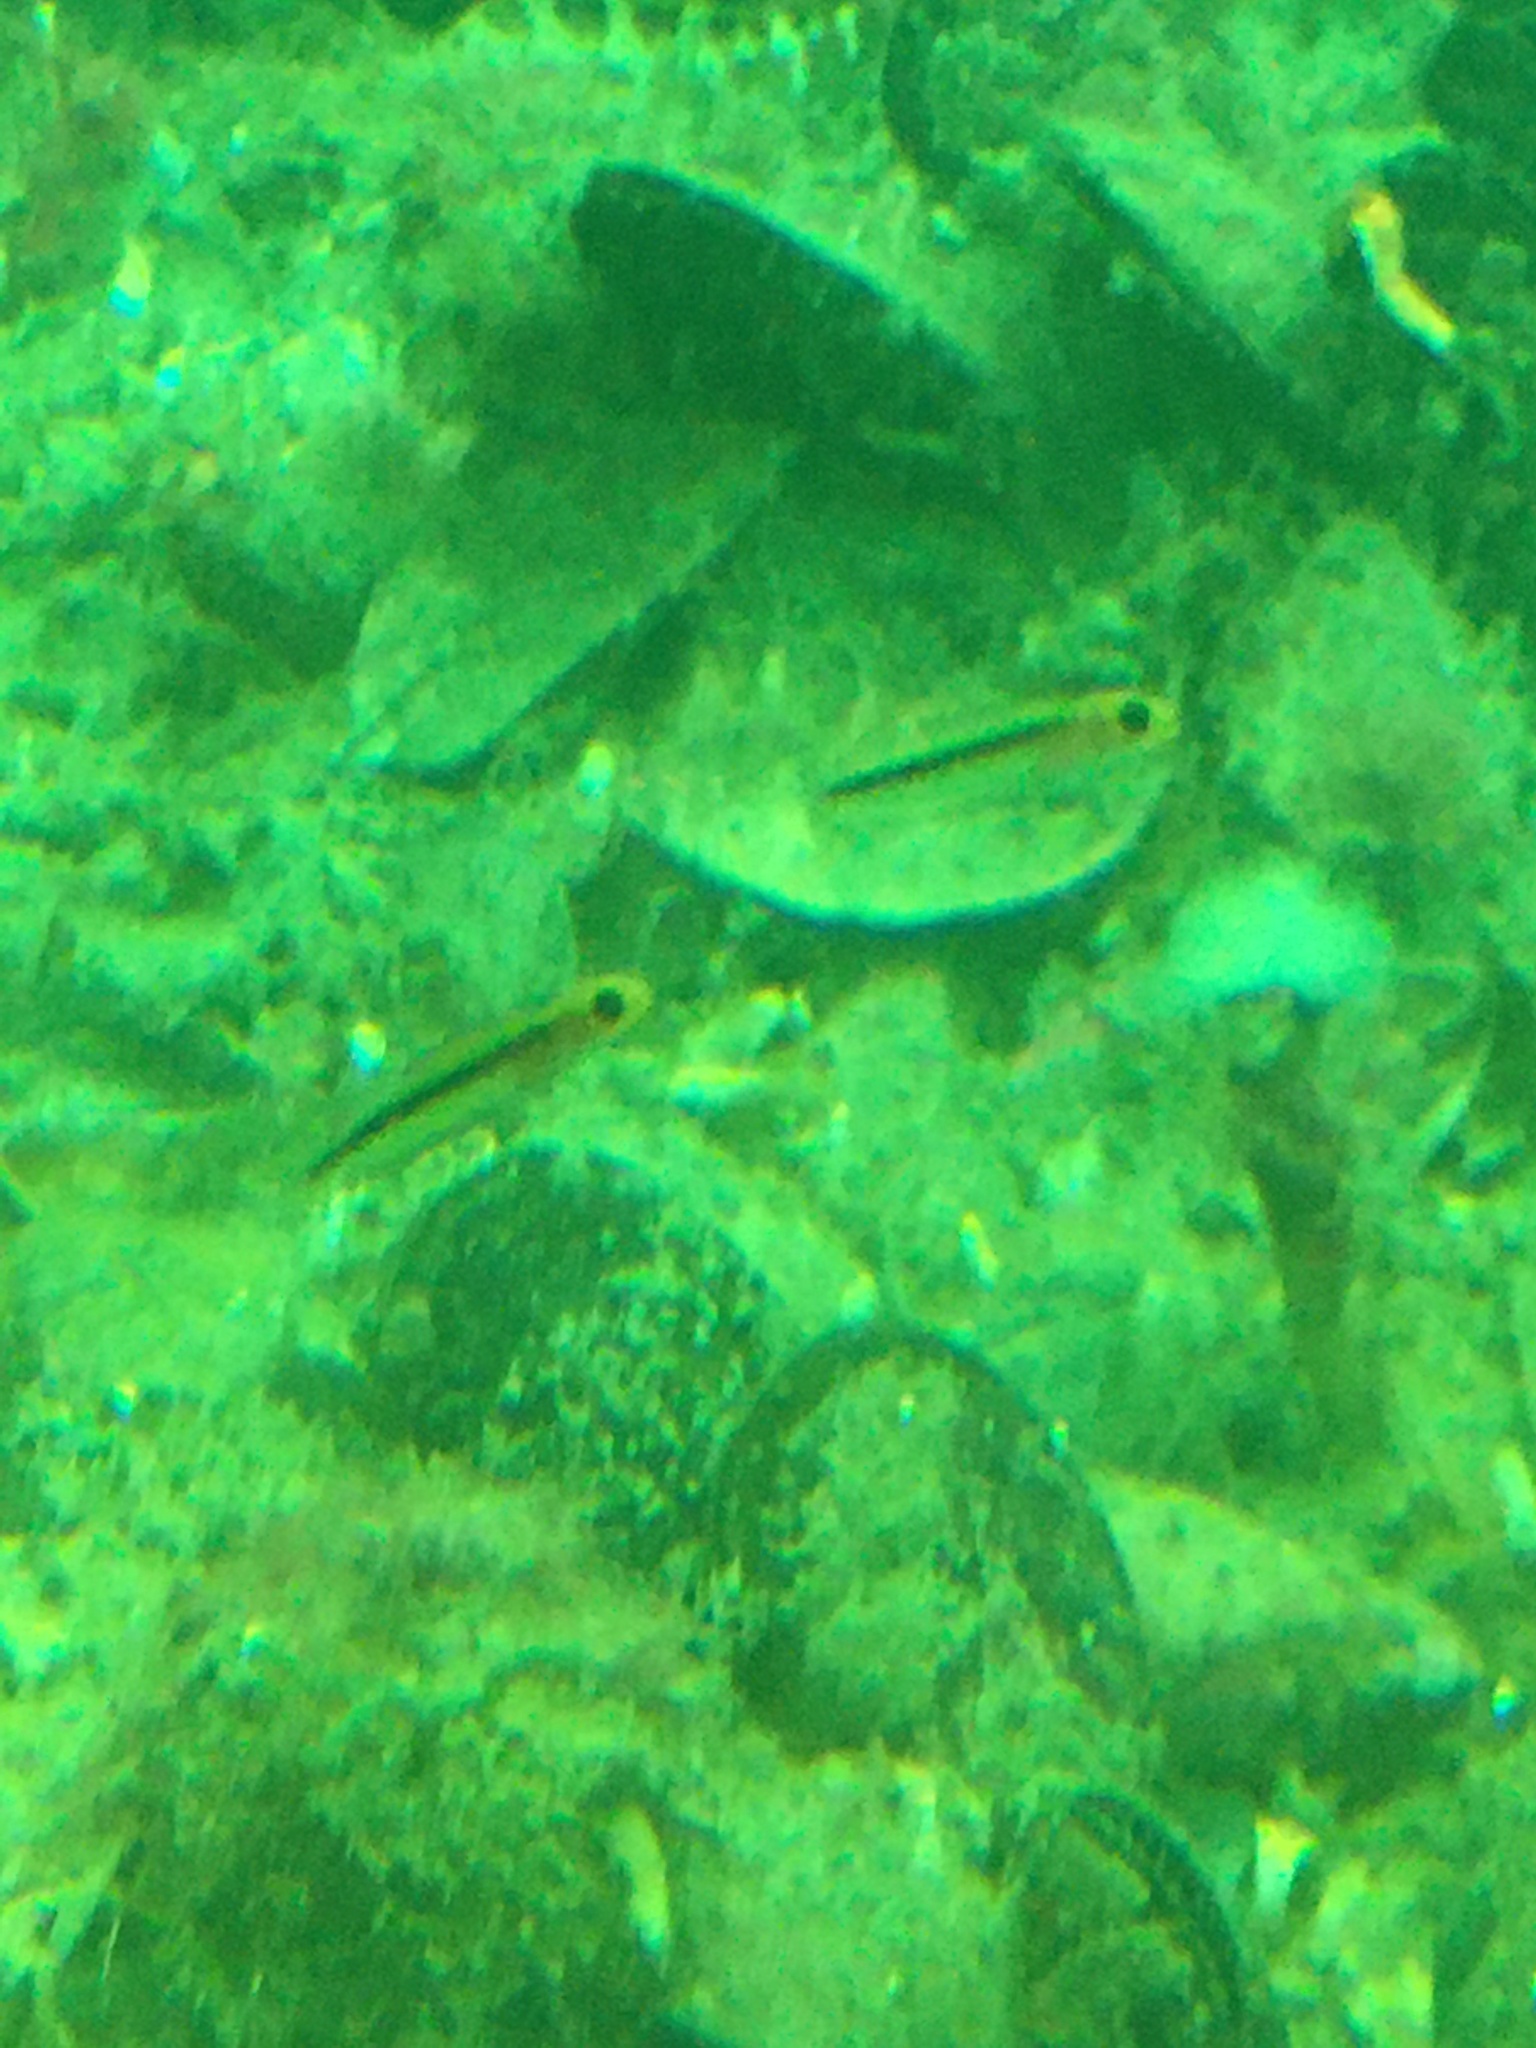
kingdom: Animalia
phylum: Chordata
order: Perciformes
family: Tripterygiidae
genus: Forsterygion
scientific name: Forsterygion maryannae
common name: Oblique-swimming triplefin
